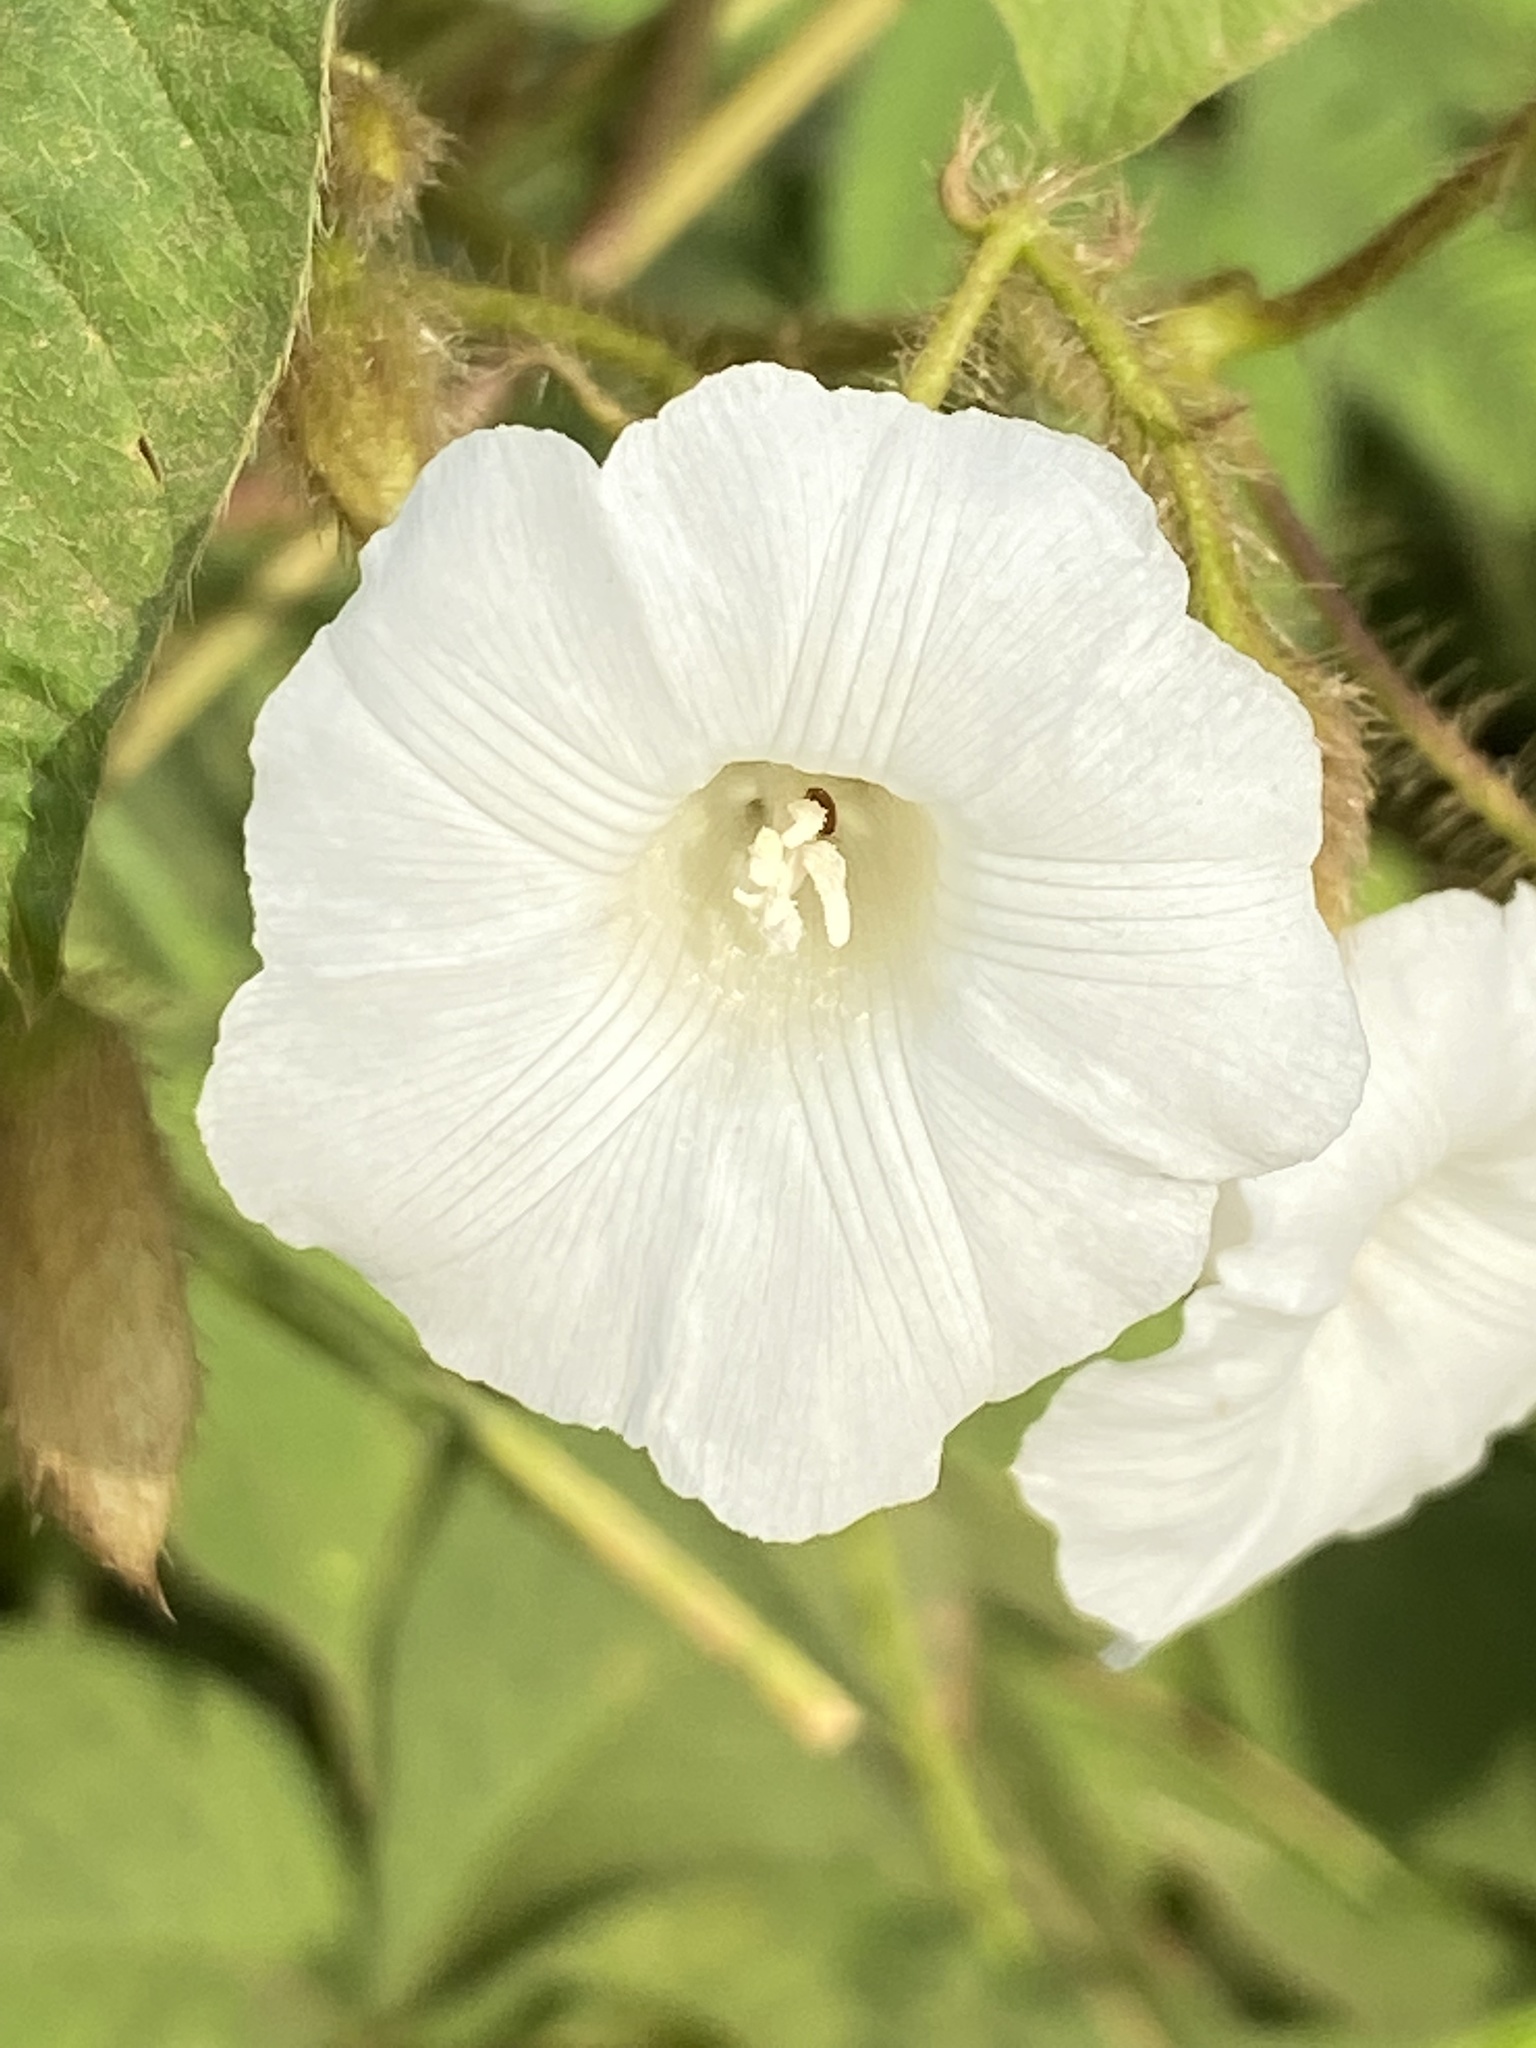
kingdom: Plantae
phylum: Tracheophyta
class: Magnoliopsida
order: Solanales
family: Convolvulaceae
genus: Distimake
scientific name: Distimake aegyptius
